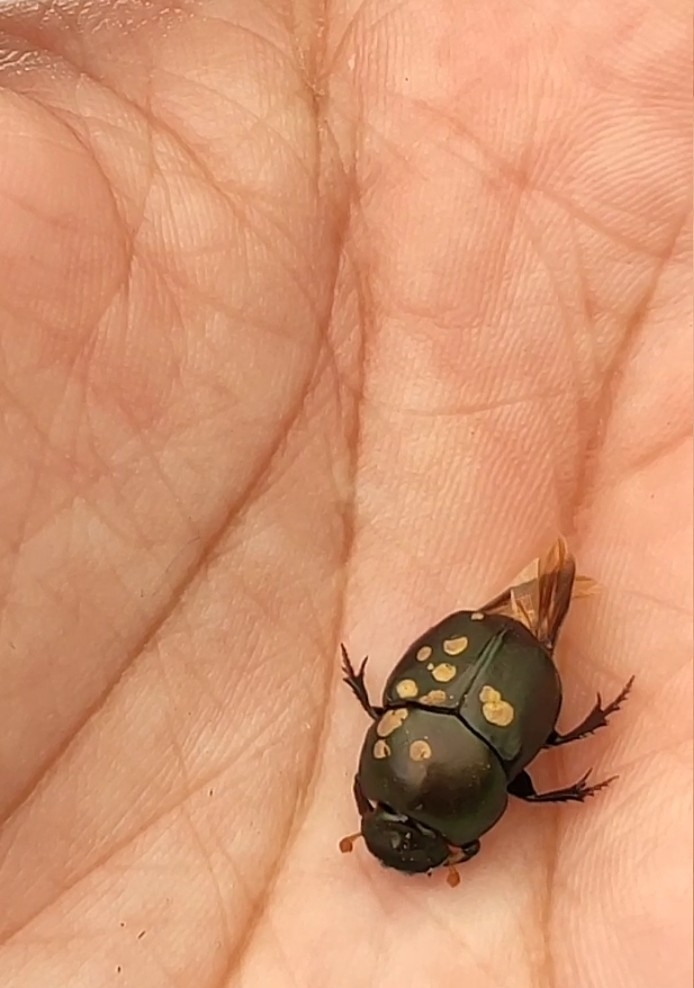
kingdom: Animalia
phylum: Arthropoda
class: Insecta
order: Coleoptera
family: Scarabaeidae
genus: Digitonthophagus
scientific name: Digitonthophagus gazella
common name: Brown dung beetle
